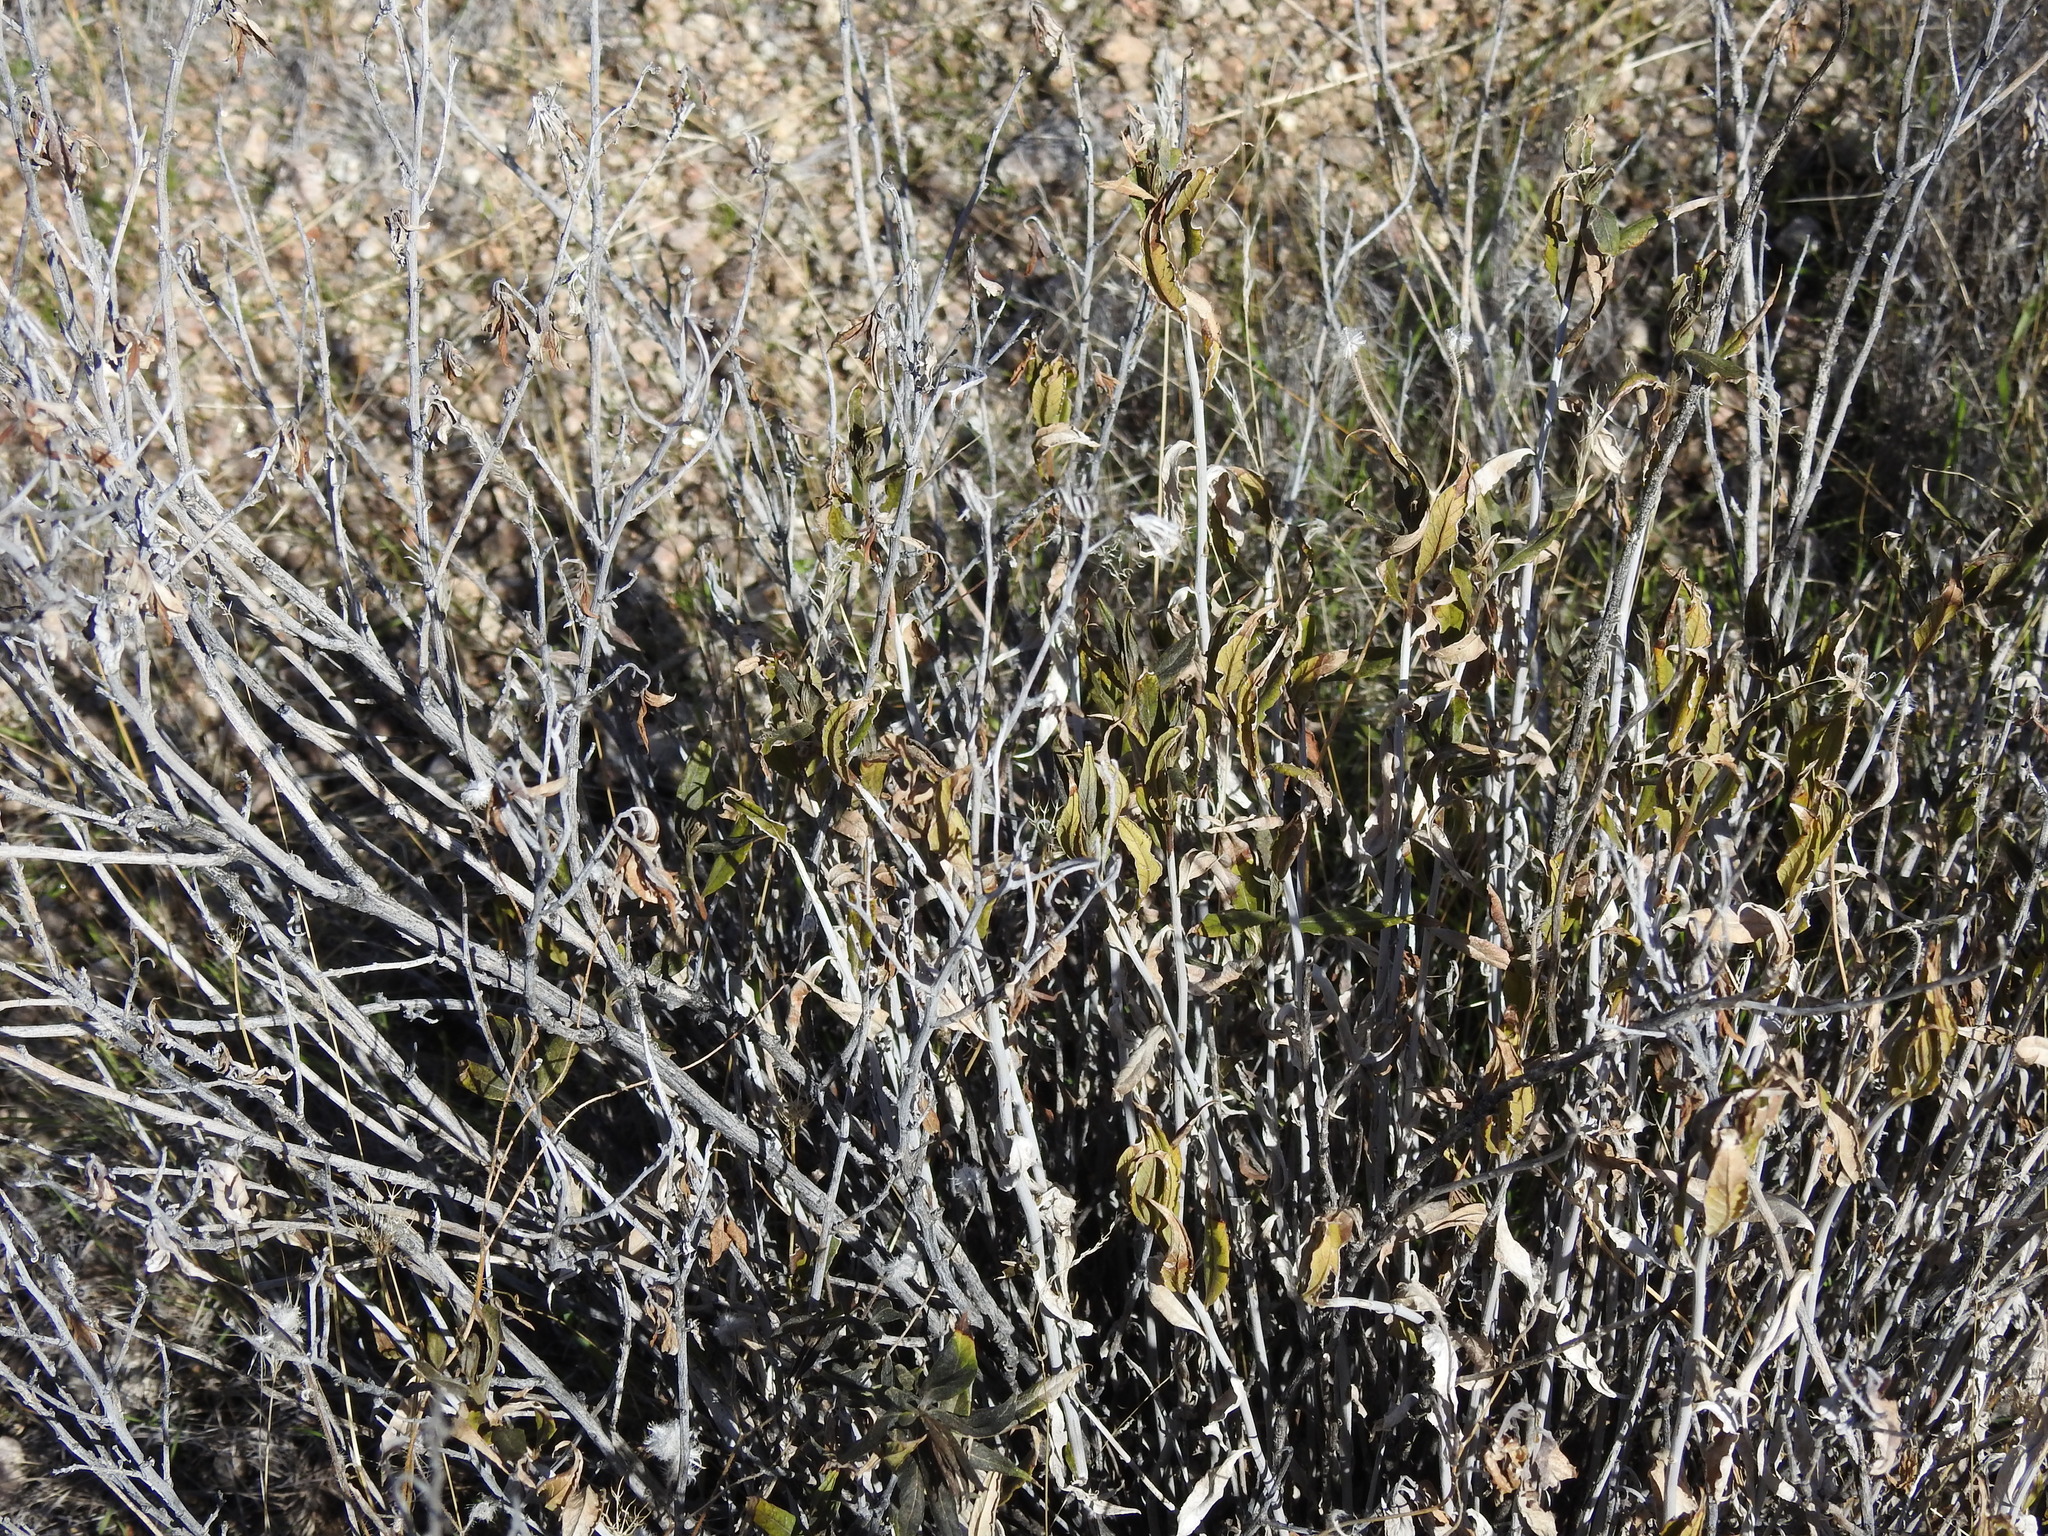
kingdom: Plantae
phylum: Tracheophyta
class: Magnoliopsida
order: Asterales
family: Asteraceae
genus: Trixis
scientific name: Trixis californica
